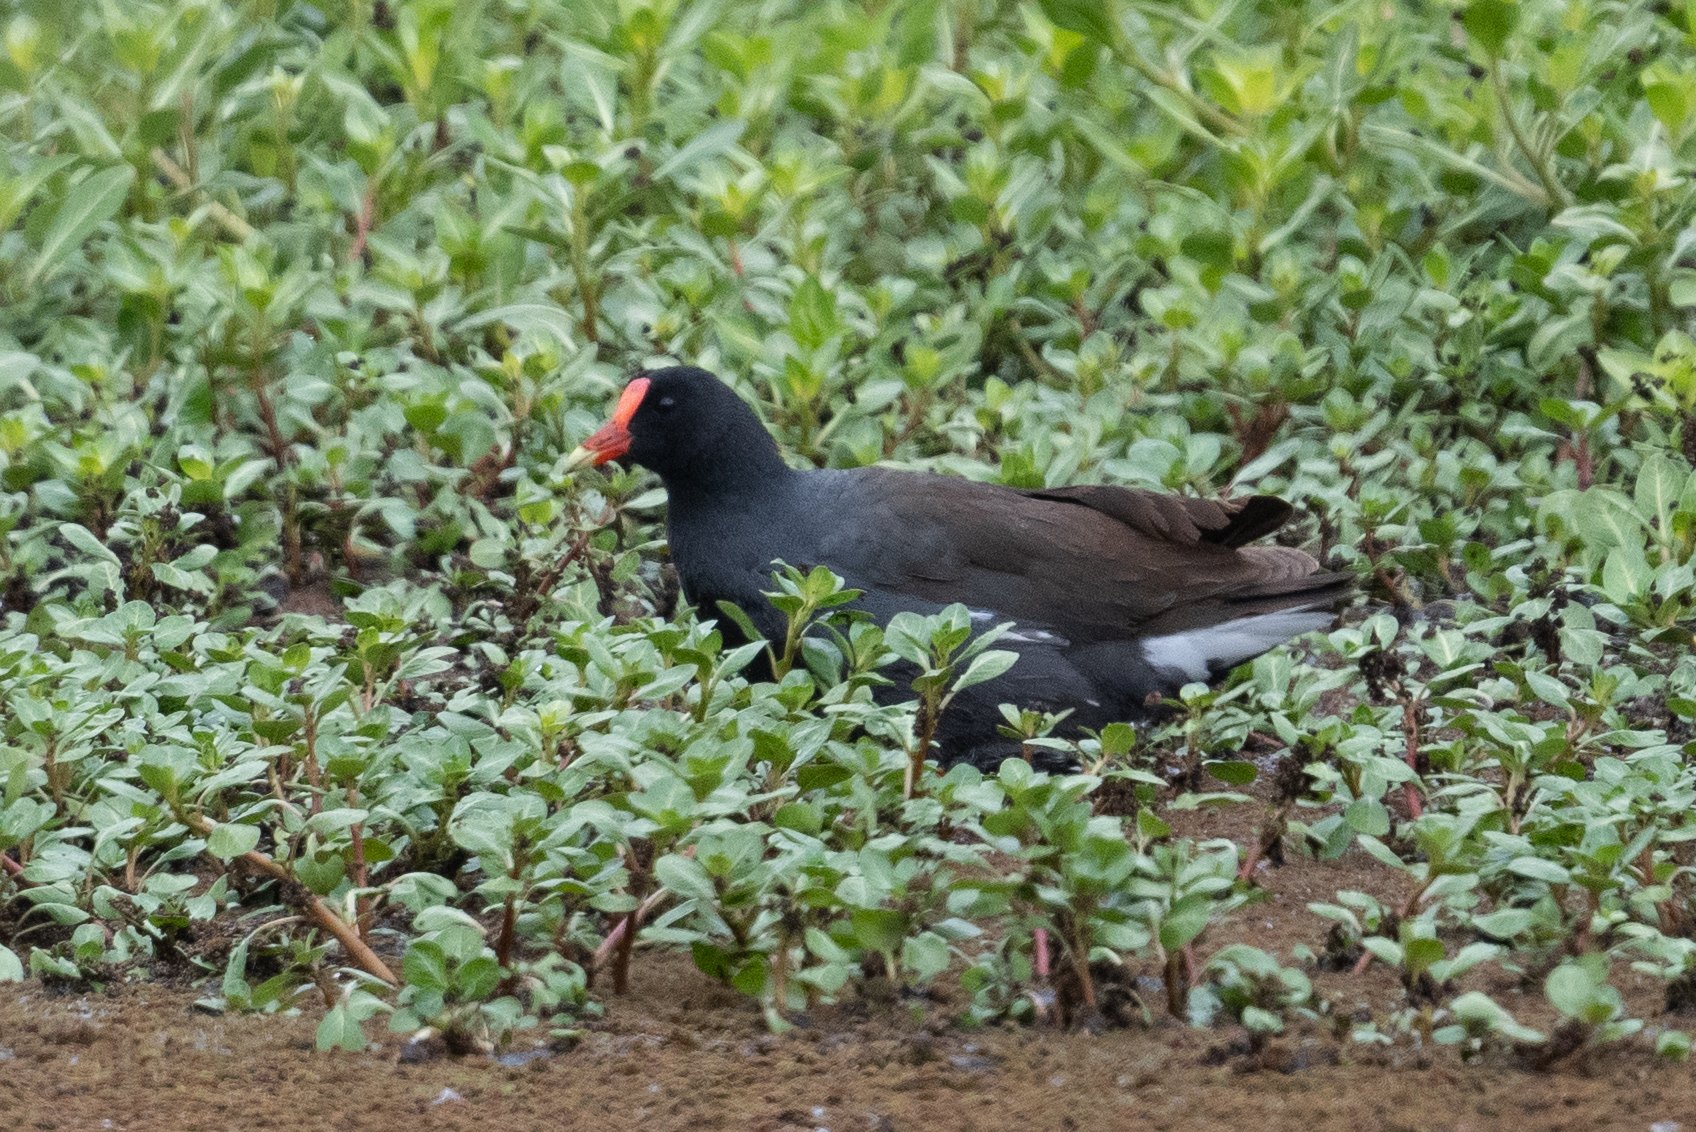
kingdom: Animalia
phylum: Chordata
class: Aves
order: Gruiformes
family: Rallidae
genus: Gallinula
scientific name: Gallinula chloropus
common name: Common moorhen
